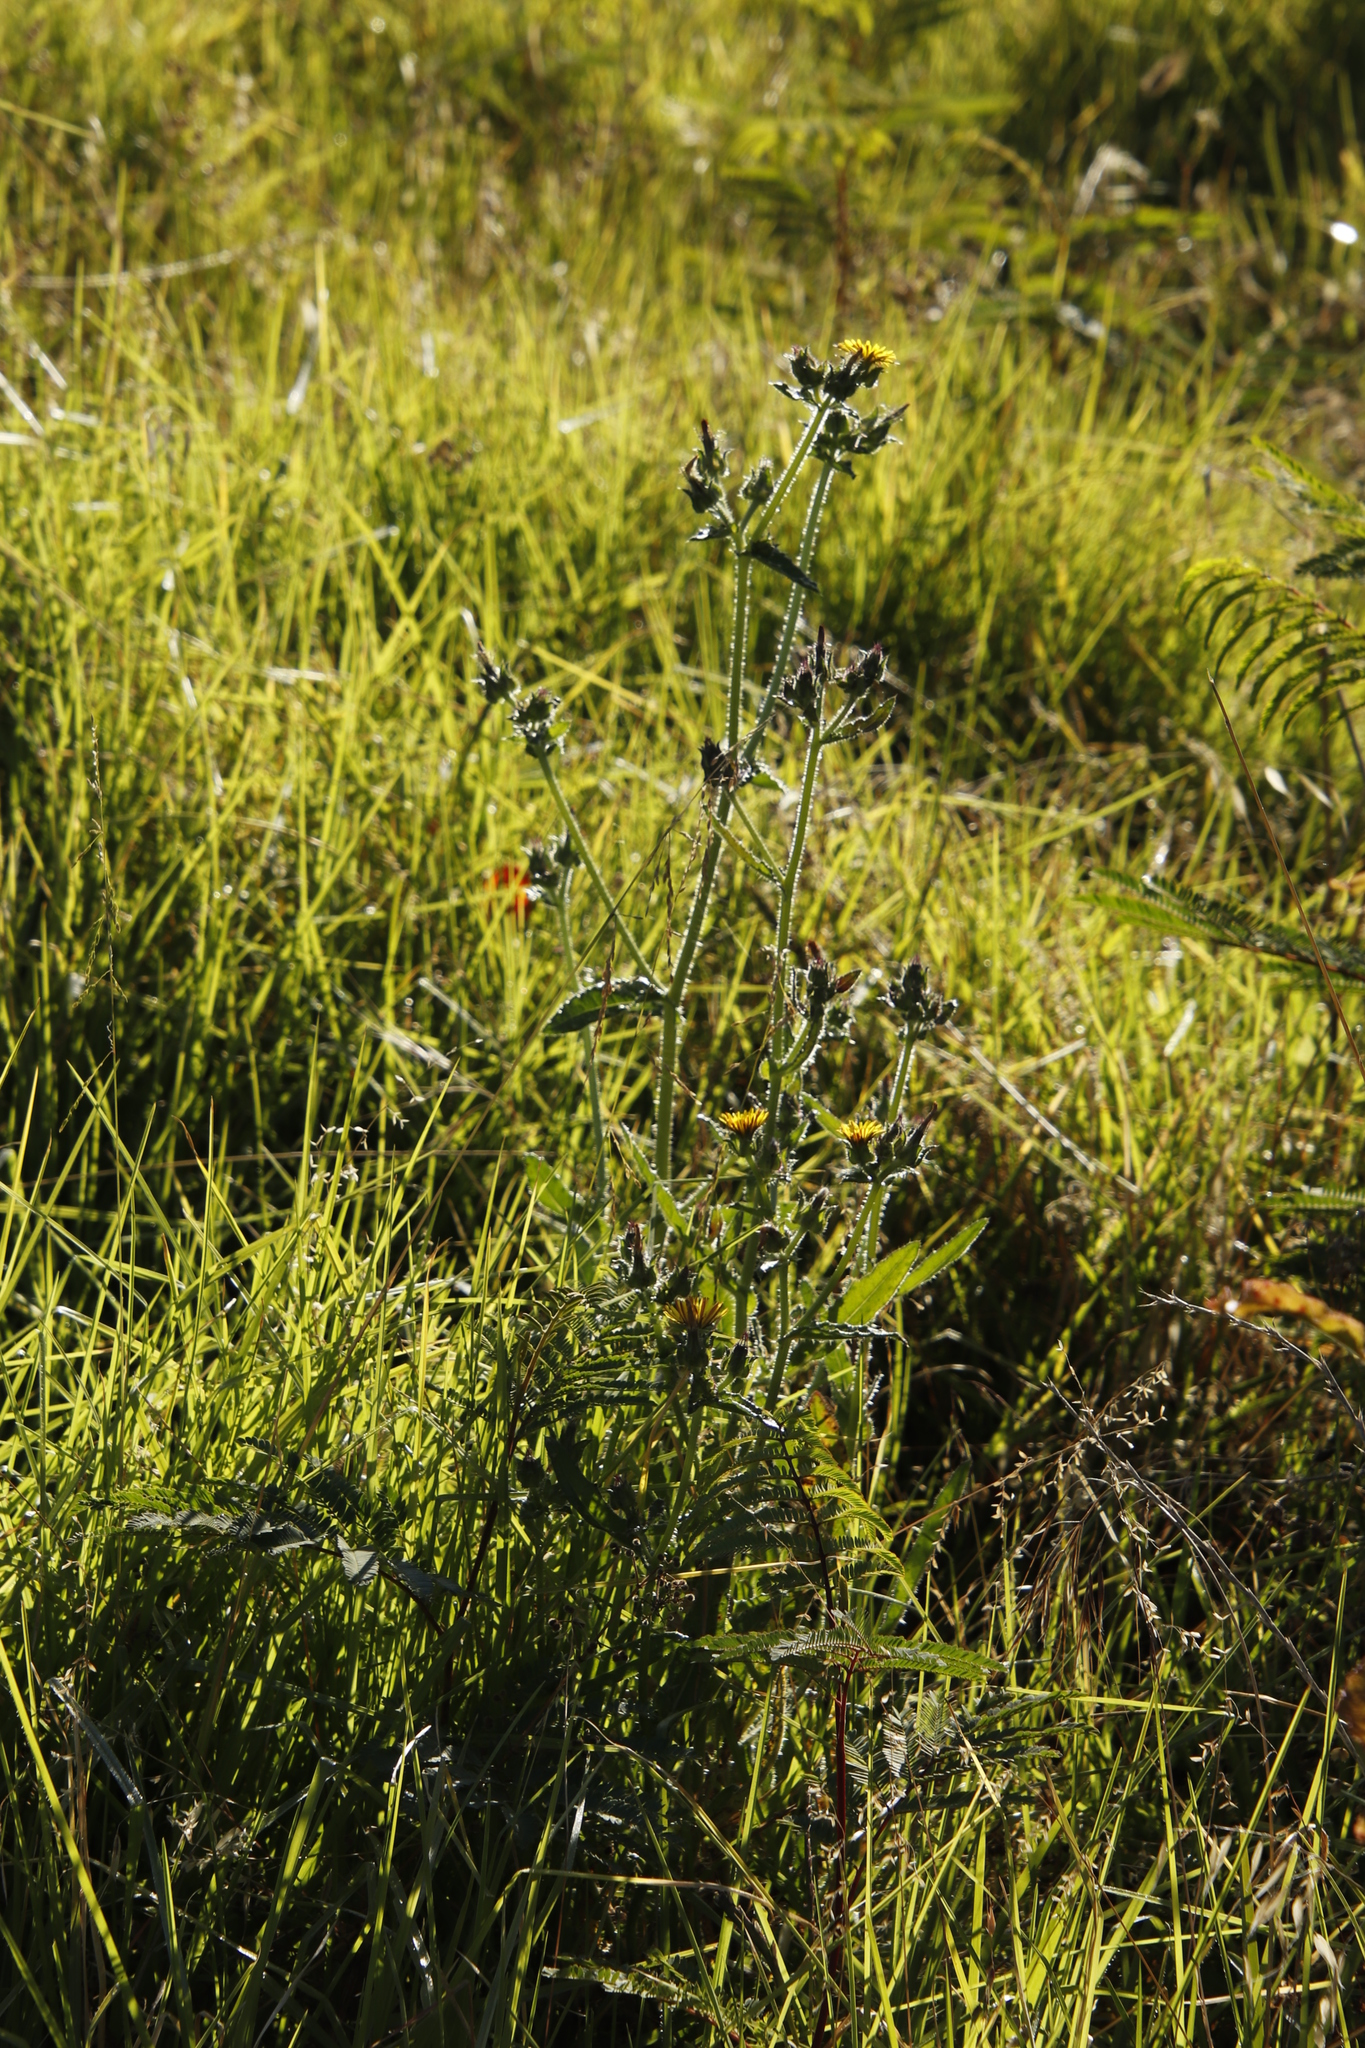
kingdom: Plantae
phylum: Tracheophyta
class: Magnoliopsida
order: Asterales
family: Asteraceae
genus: Helminthotheca
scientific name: Helminthotheca echioides
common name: Ox-tongue
